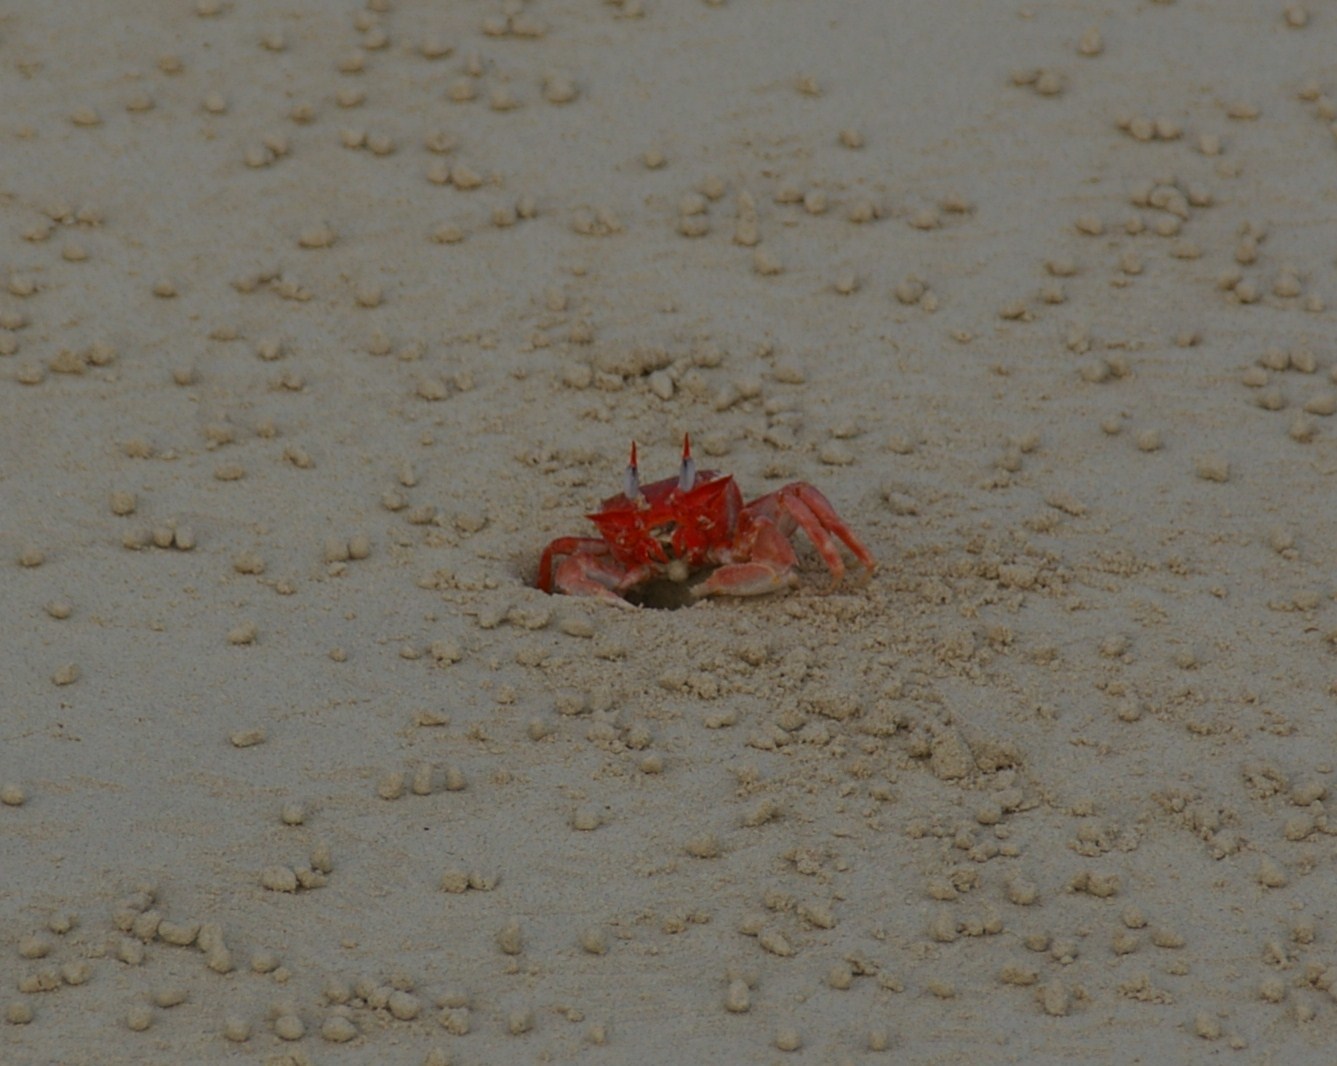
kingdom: Animalia
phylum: Arthropoda
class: Malacostraca
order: Decapoda
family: Ocypodidae
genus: Ocypode
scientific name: Ocypode gaudichaudii
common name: Pacific ghost crab
